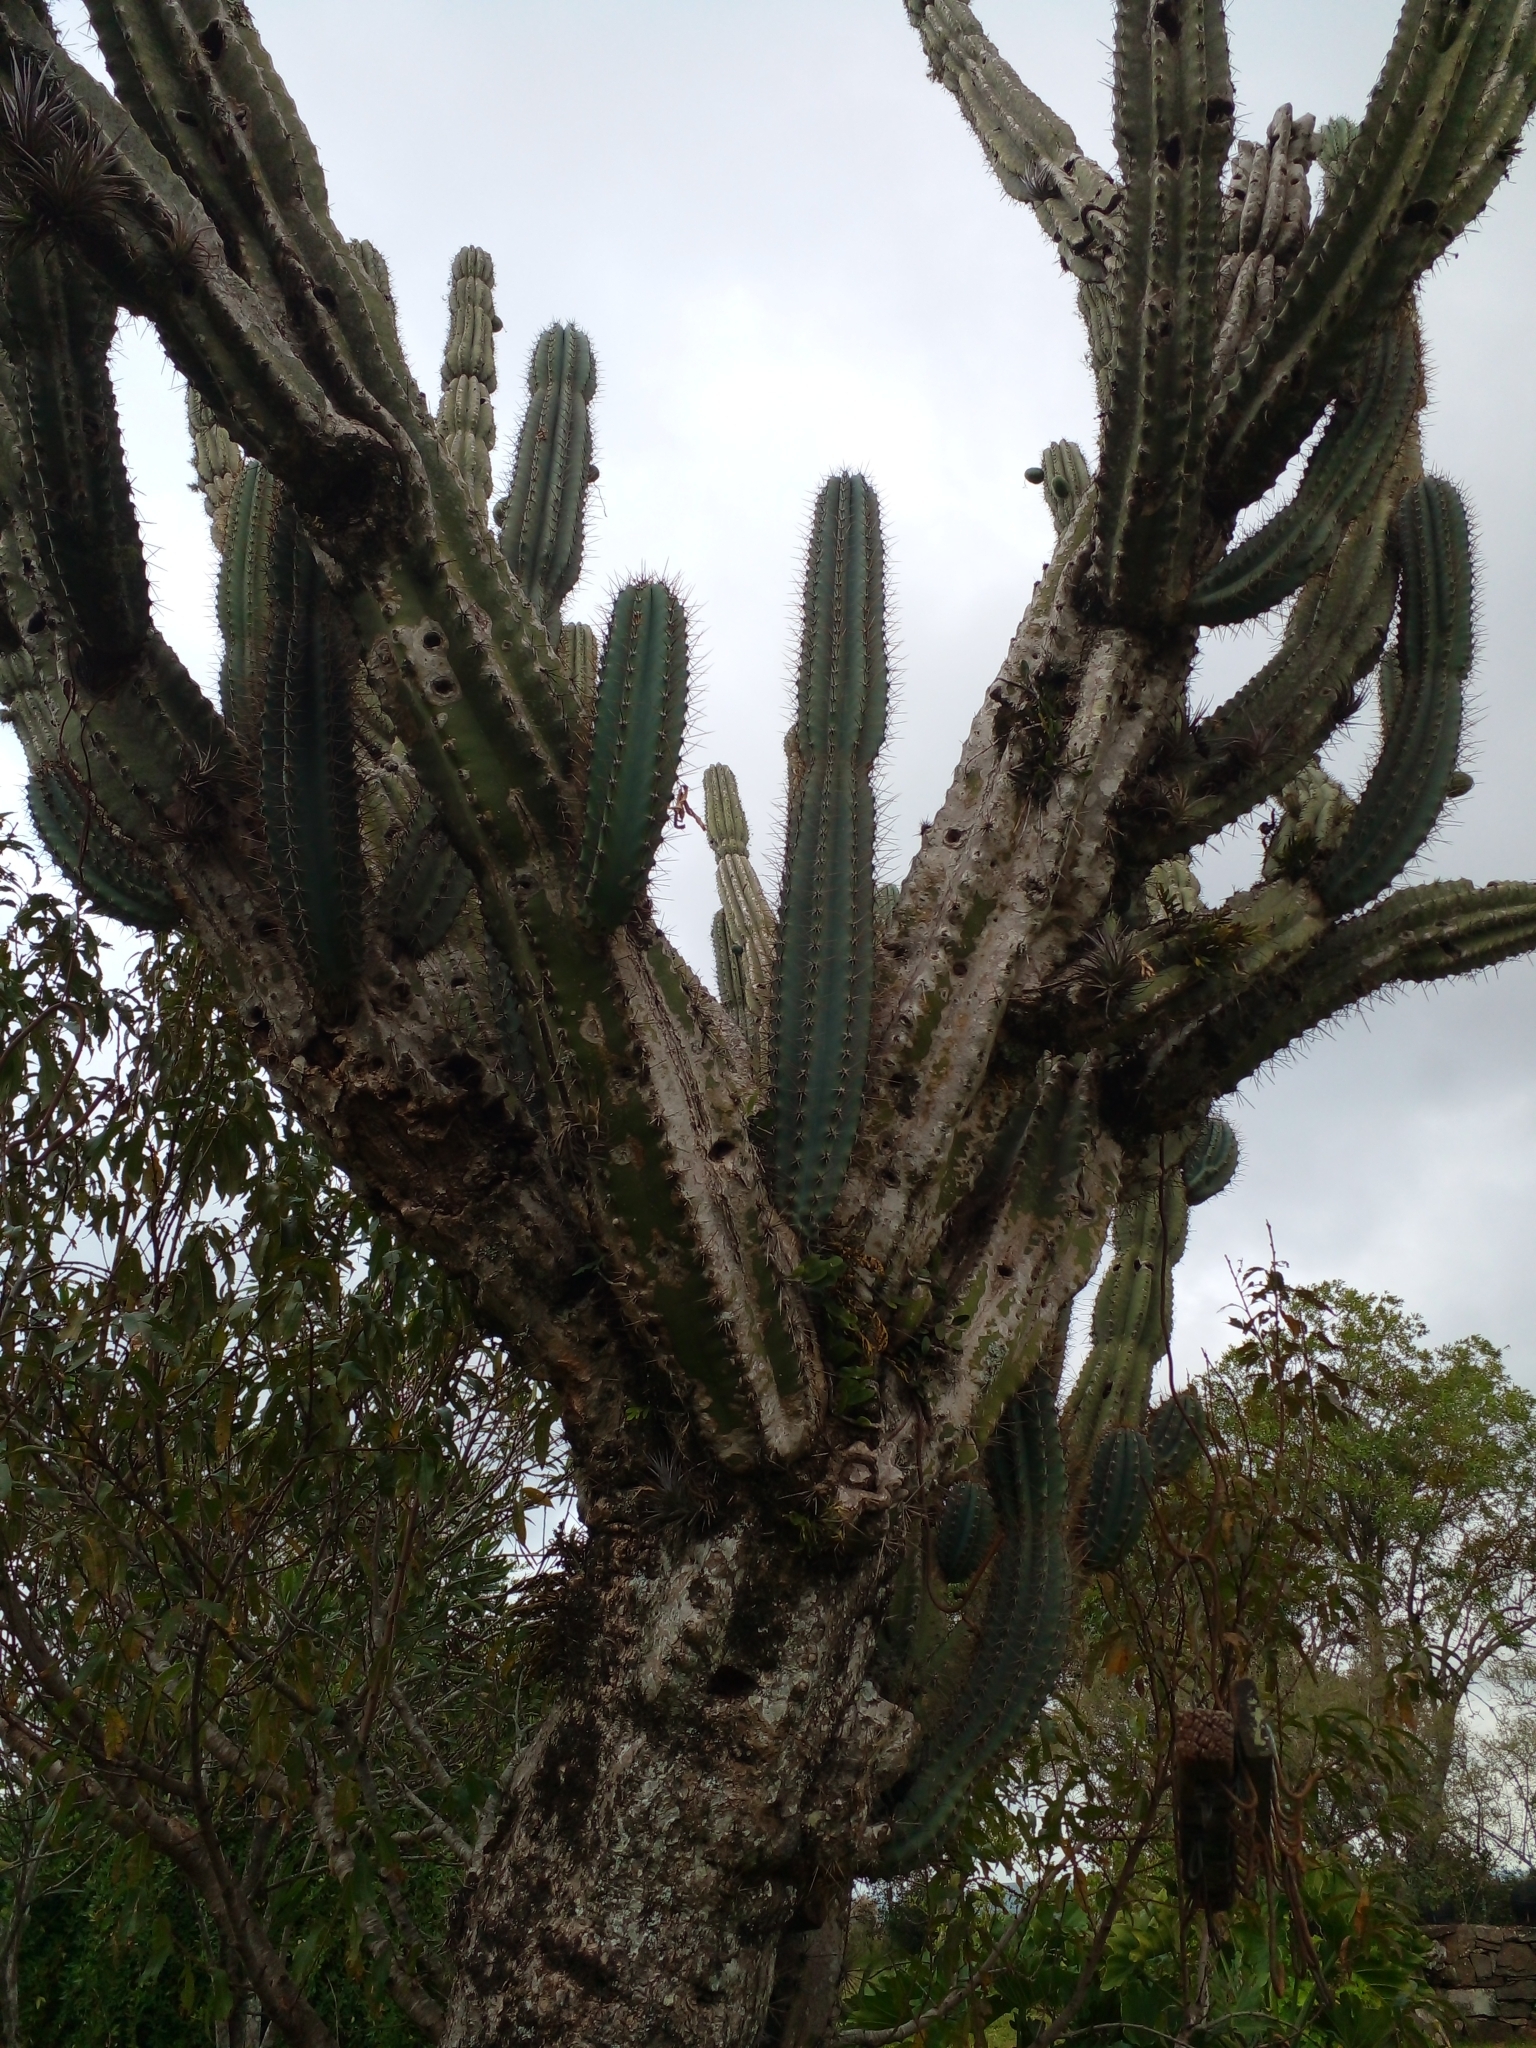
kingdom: Plantae
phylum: Tracheophyta
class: Magnoliopsida
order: Caryophyllales
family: Cactaceae
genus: Cereus
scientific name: Cereus hildmannianus
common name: Hedge cactus
